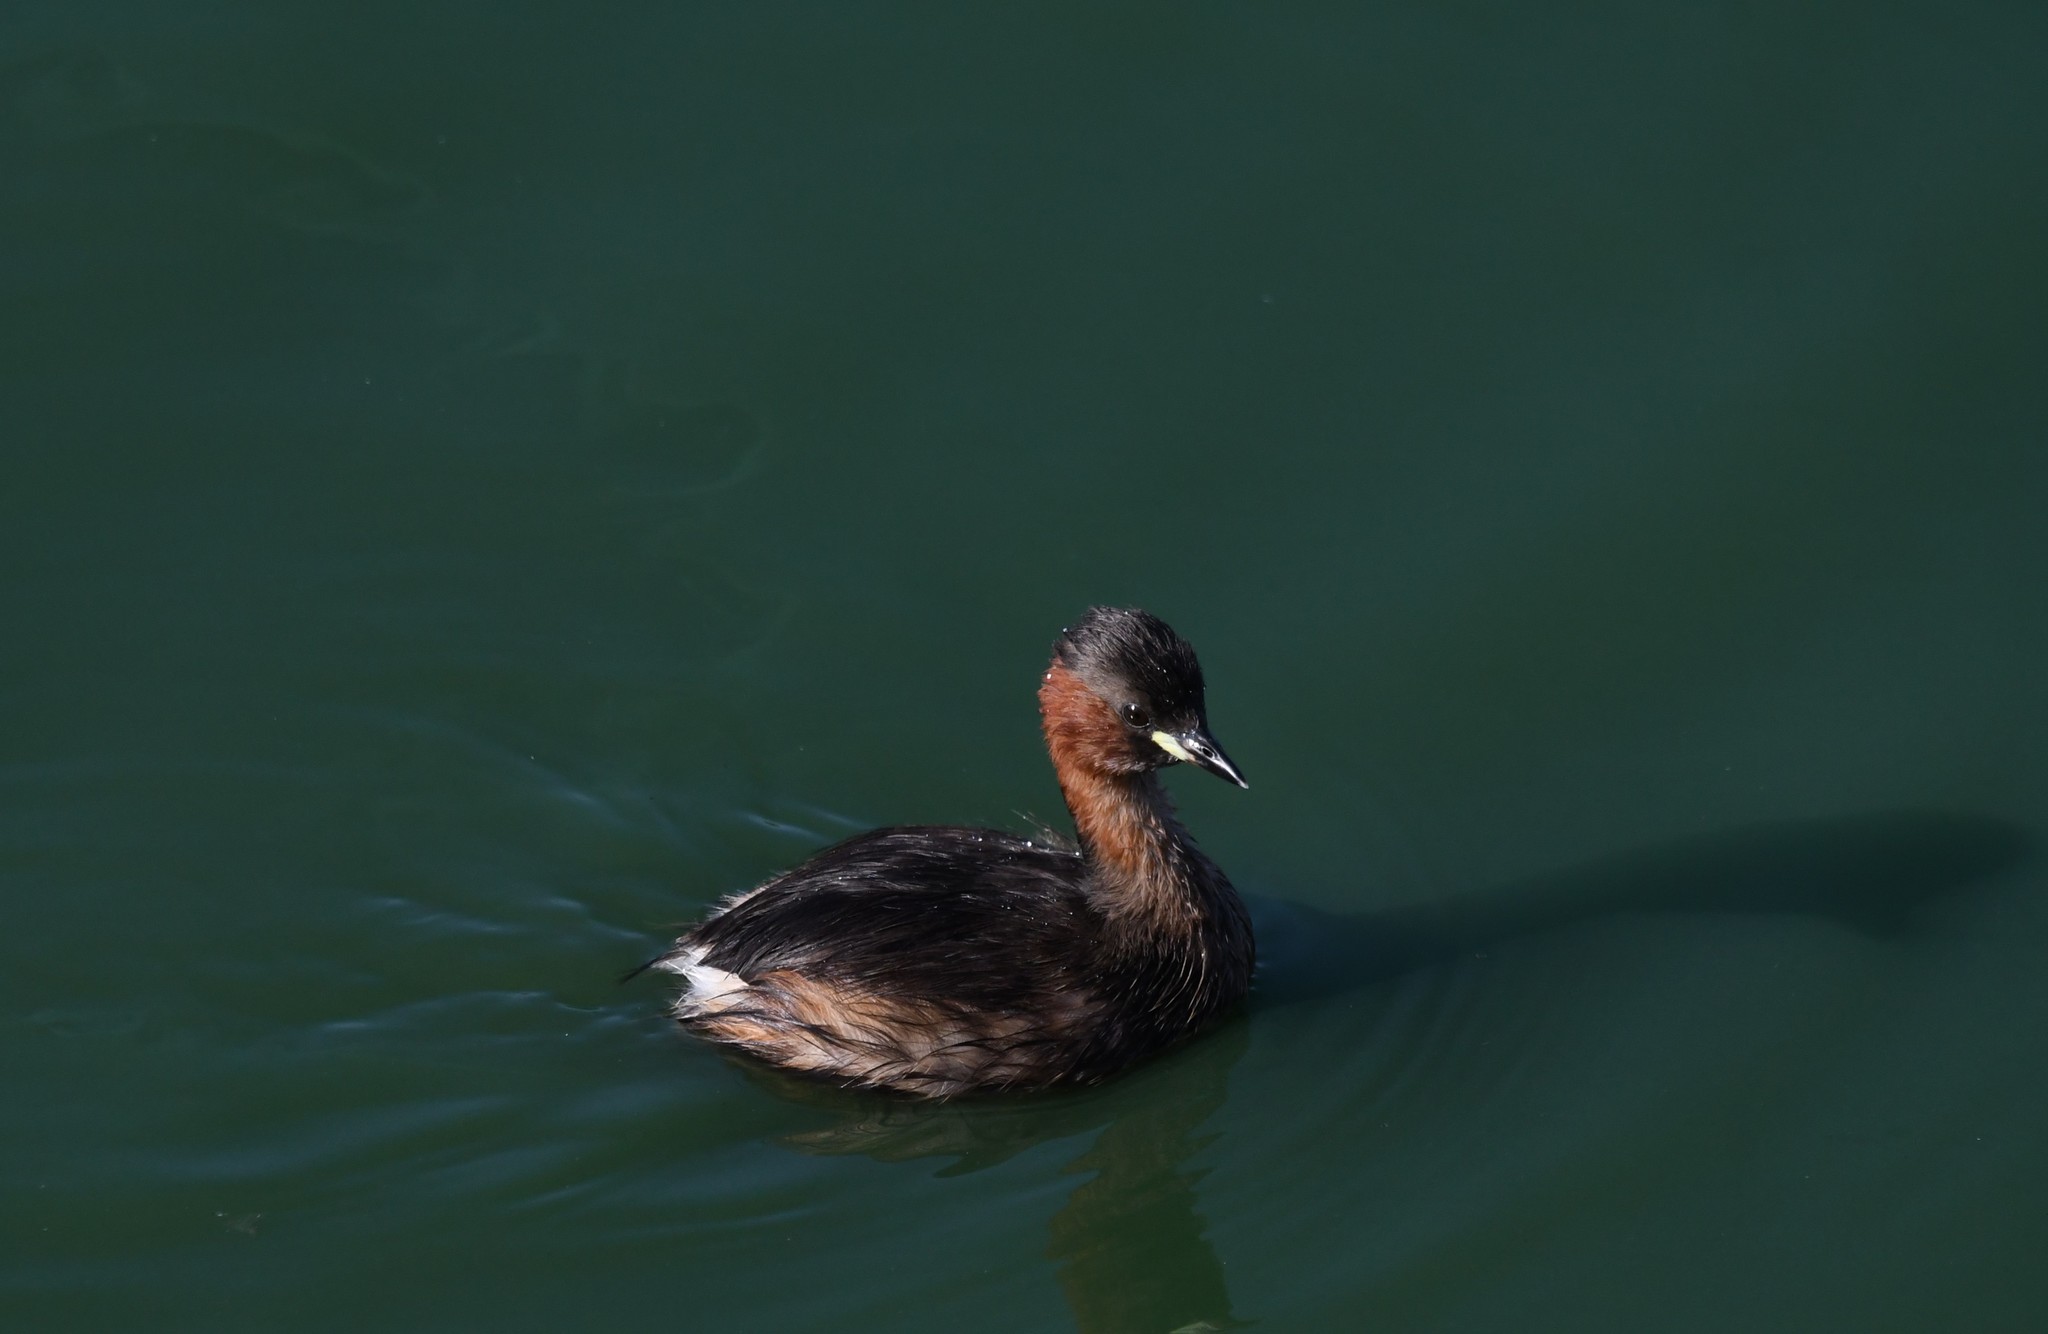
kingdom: Animalia
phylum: Chordata
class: Aves
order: Podicipediformes
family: Podicipedidae
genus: Tachybaptus
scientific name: Tachybaptus ruficollis
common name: Little grebe
